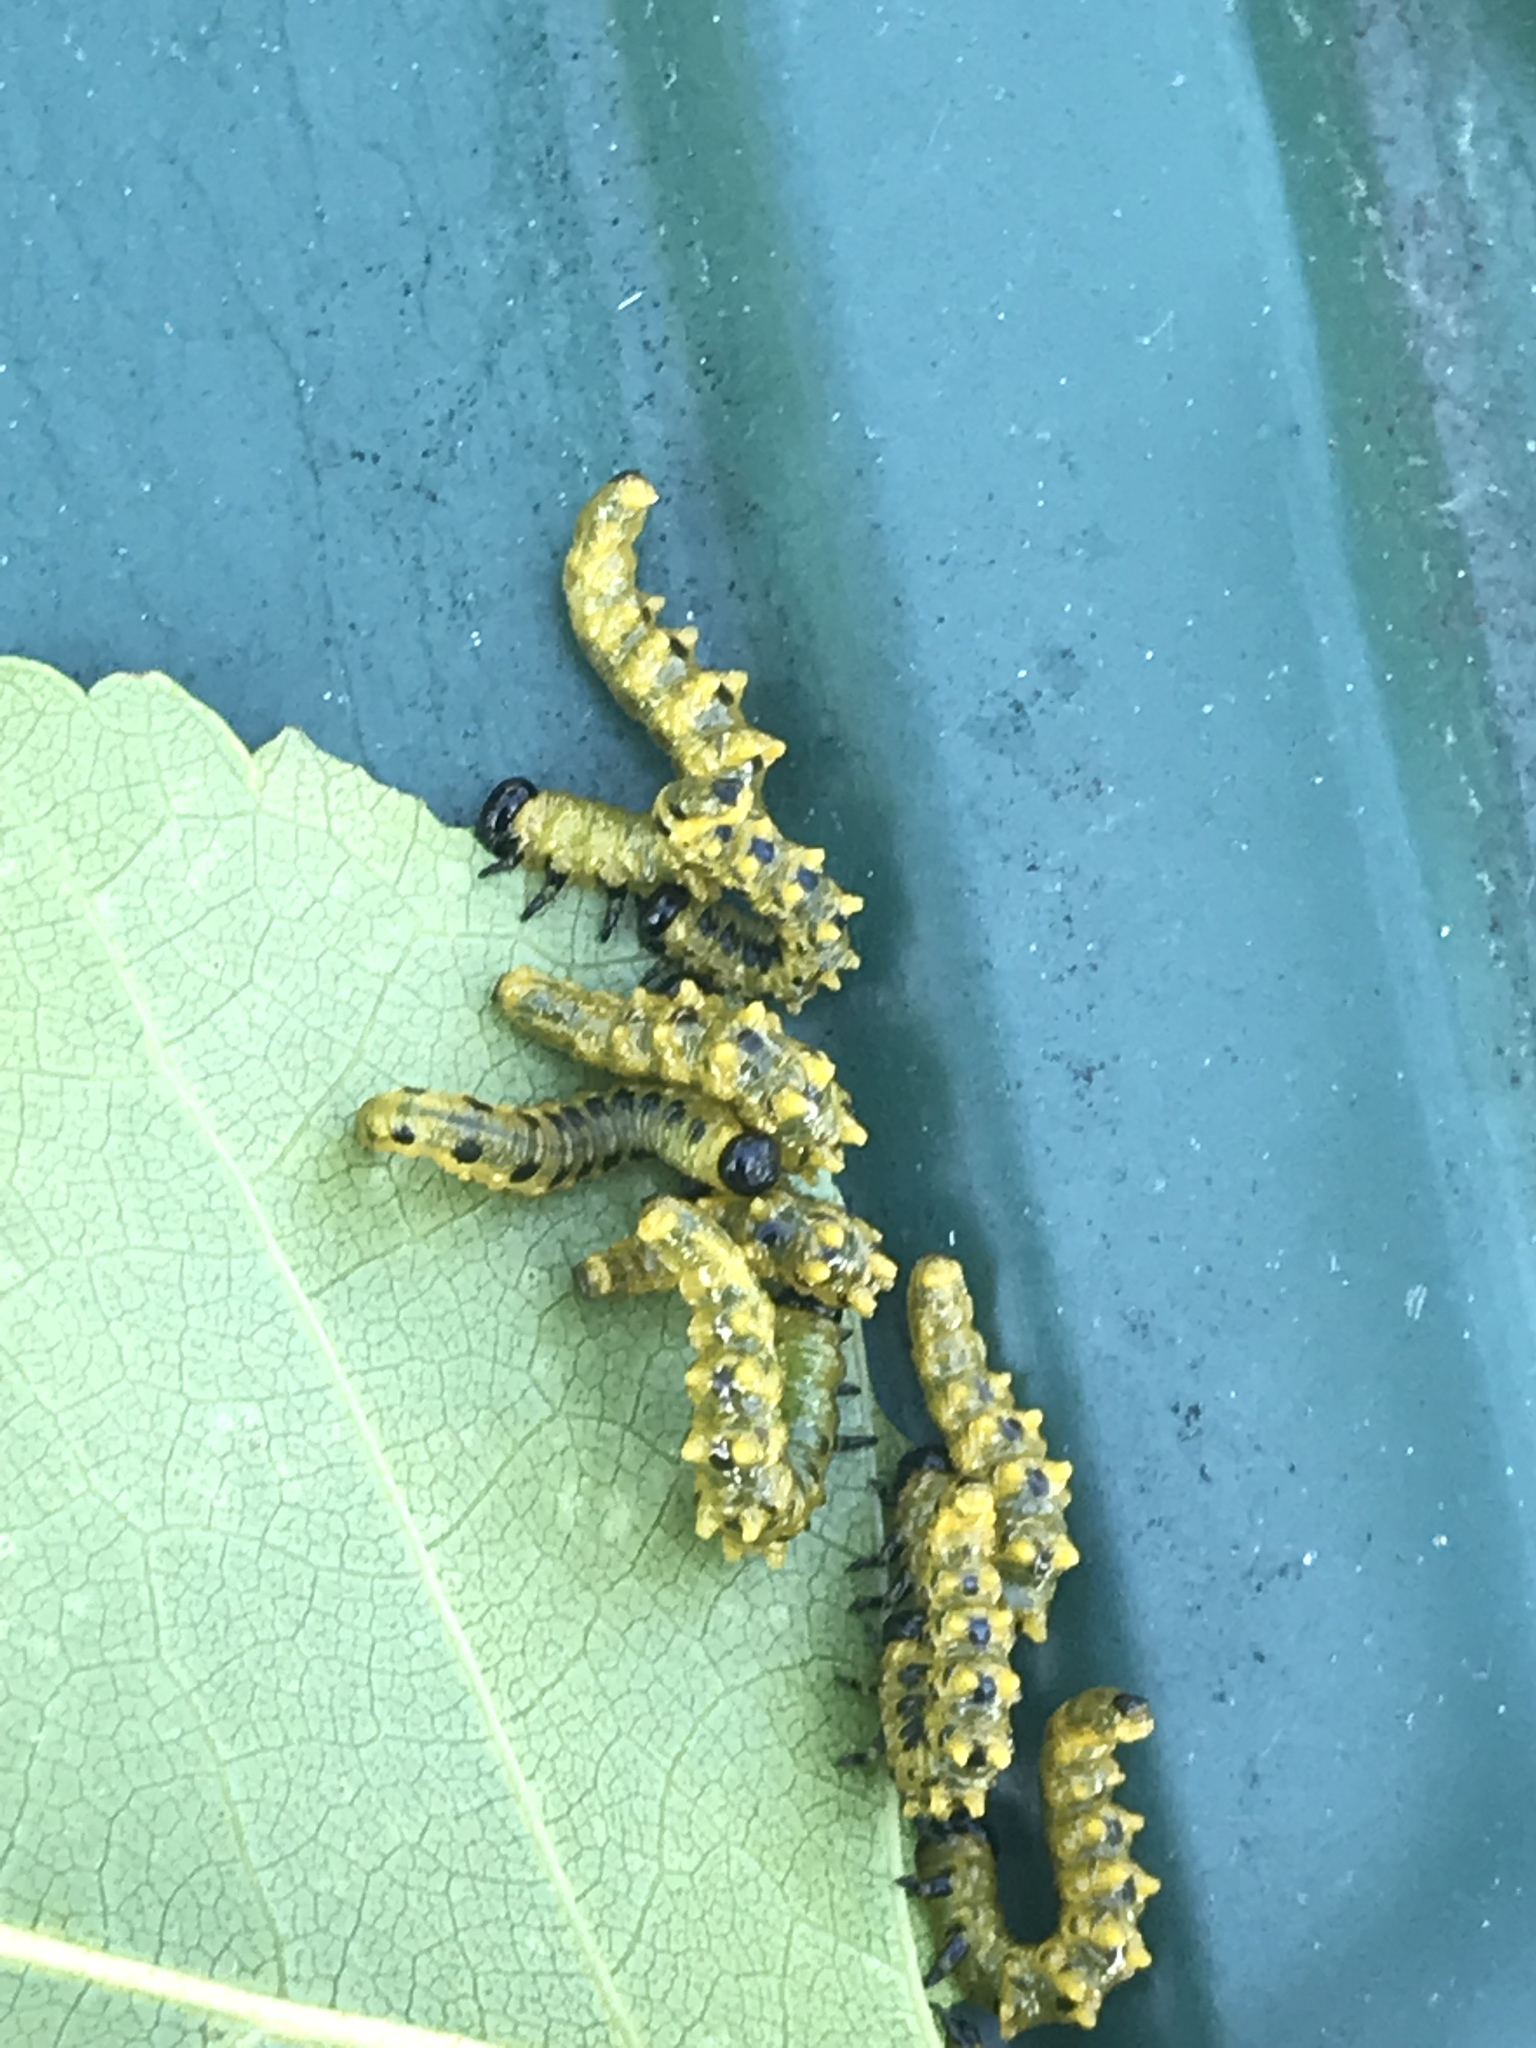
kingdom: Animalia
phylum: Arthropoda
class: Insecta
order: Hymenoptera
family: Tenthredinidae
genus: Nematus
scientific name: Nematus
